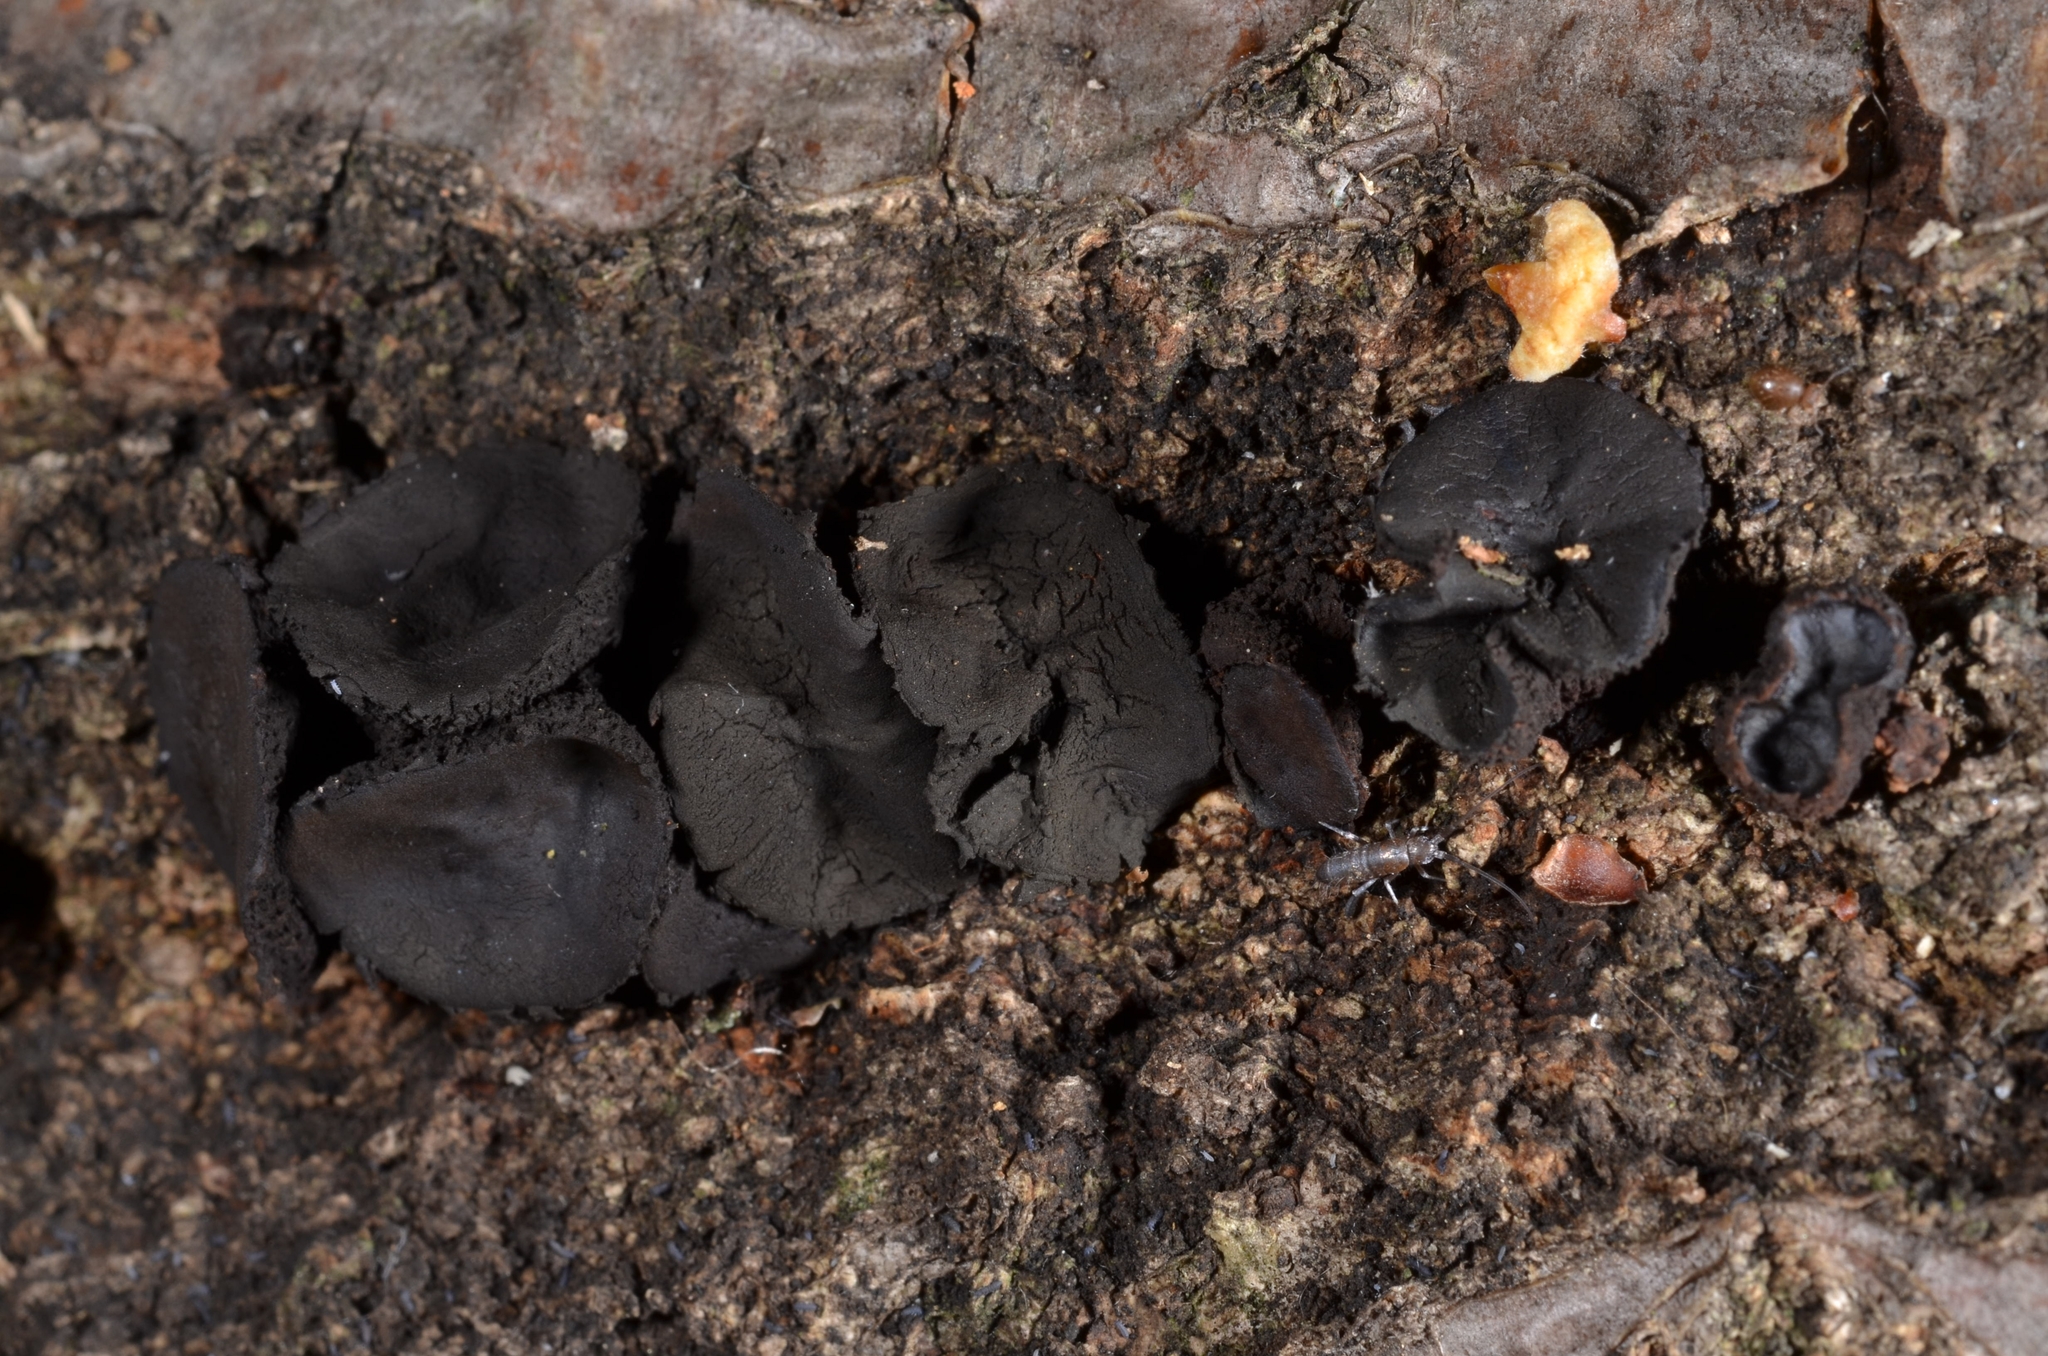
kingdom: Fungi
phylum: Ascomycota
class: Leotiomycetes
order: Phacidiales
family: Phacidiaceae
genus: Bulgaria
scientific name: Bulgaria inquinans
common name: Black bulgar
